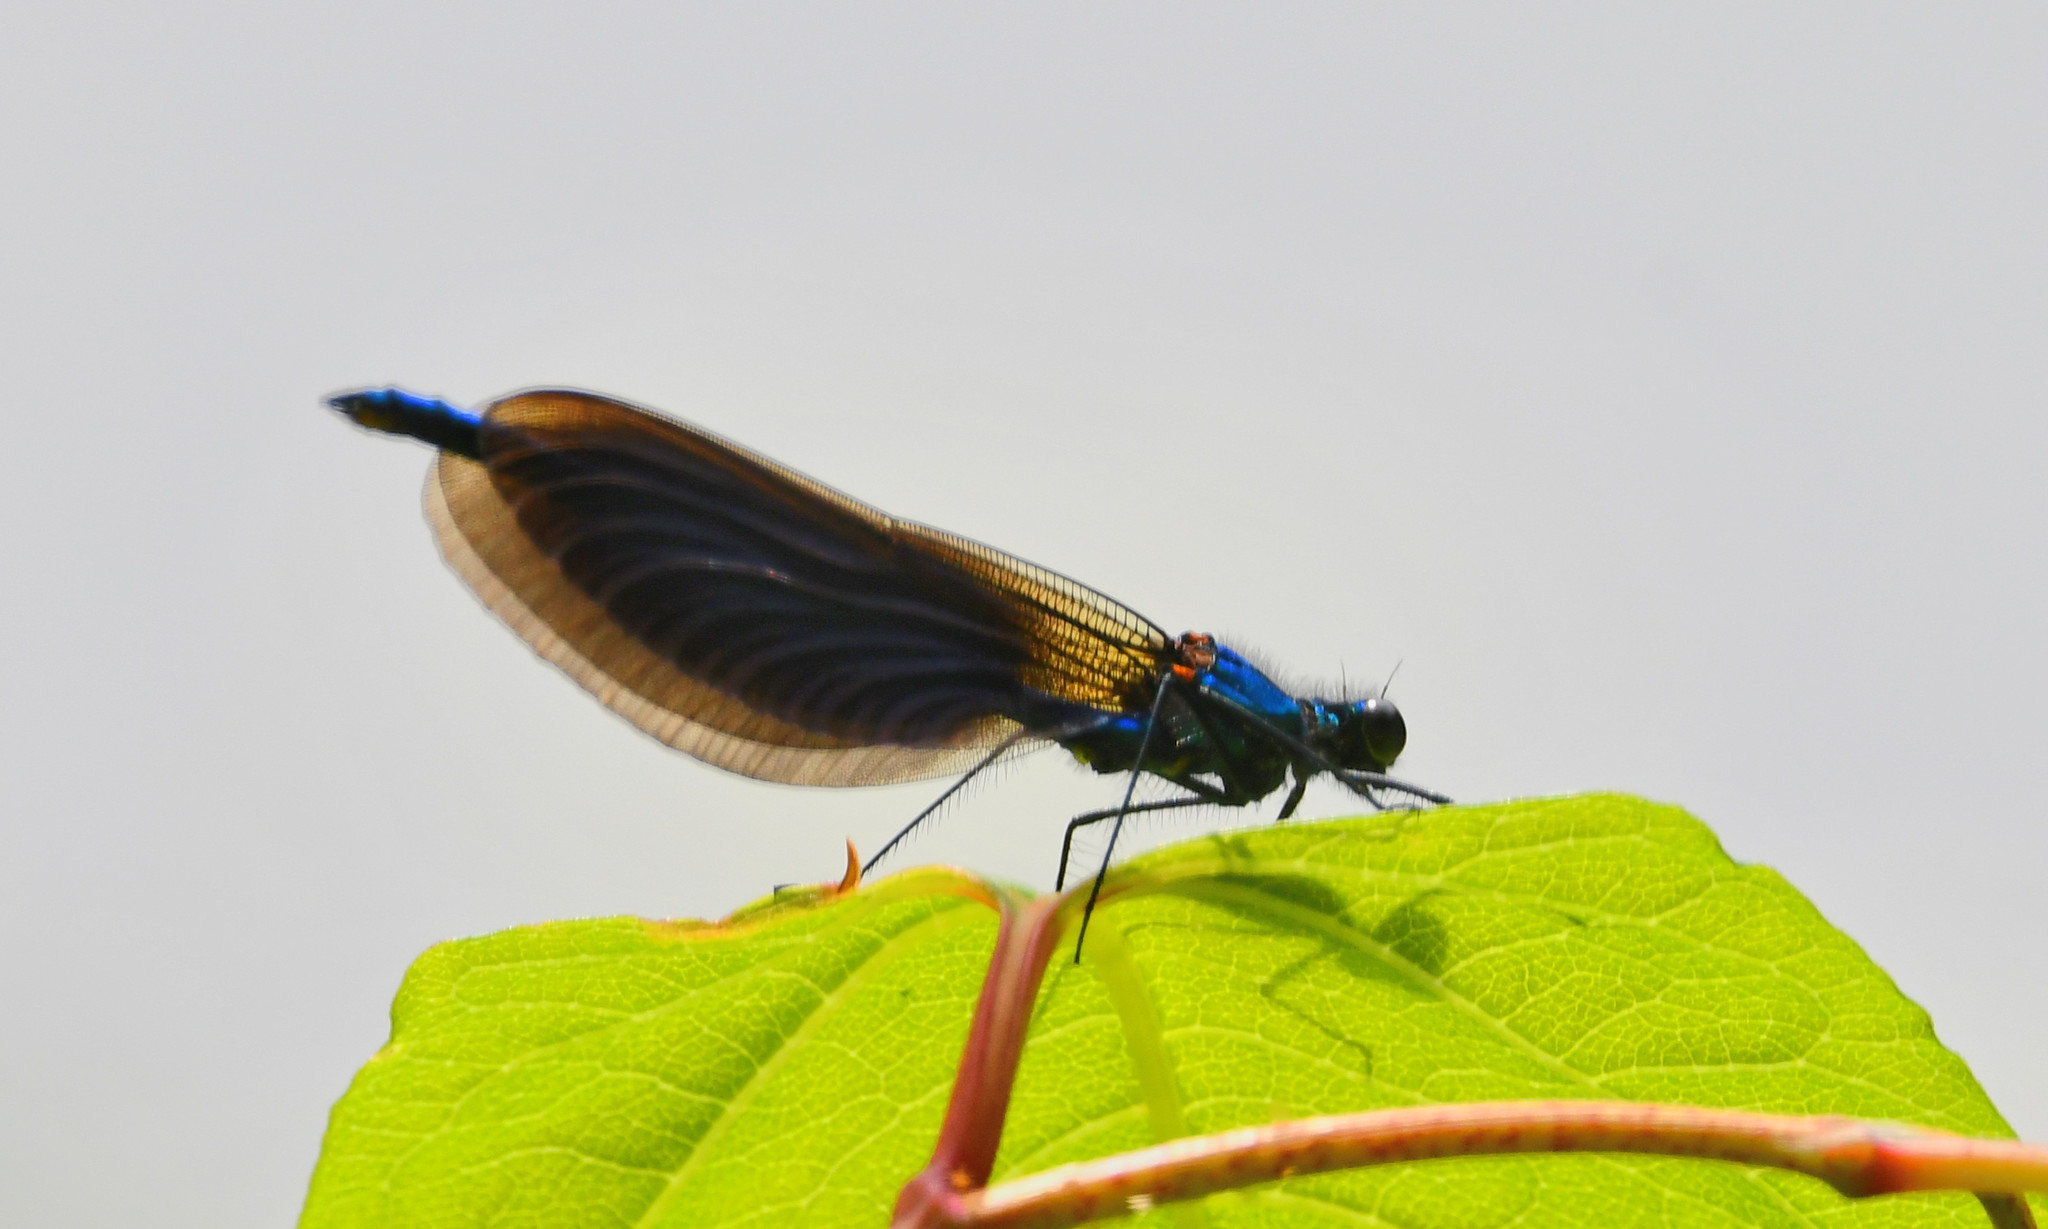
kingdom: Animalia
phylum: Arthropoda
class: Insecta
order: Odonata
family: Calopterygidae
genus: Calopteryx
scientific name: Calopteryx virgo
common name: Beautiful demoiselle
